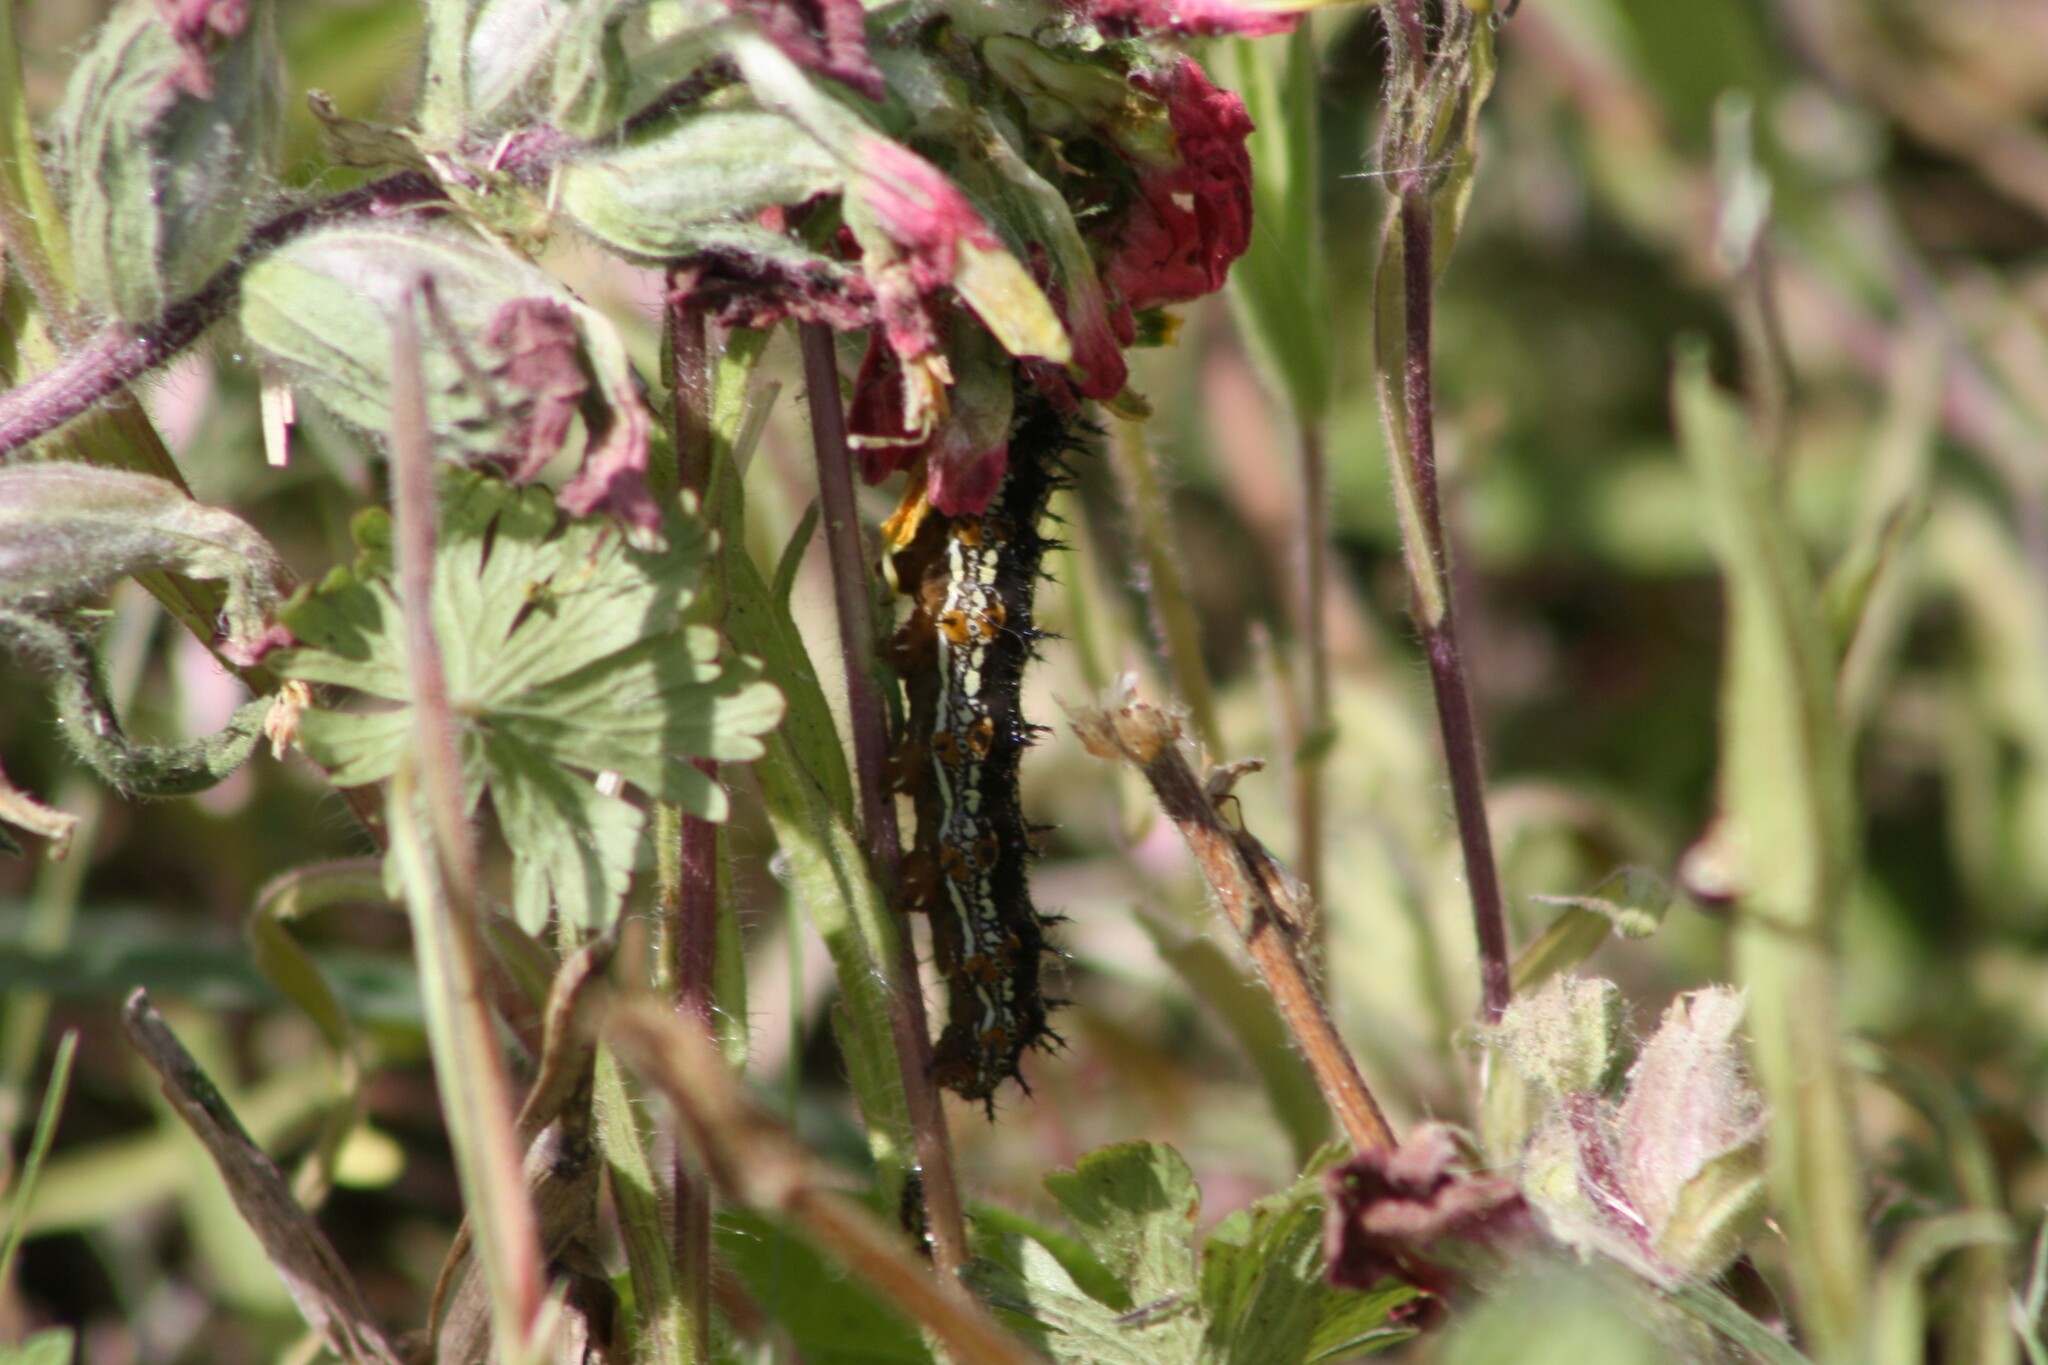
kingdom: Animalia
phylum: Arthropoda
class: Insecta
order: Lepidoptera
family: Nymphalidae
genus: Junonia
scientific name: Junonia coenia
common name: Common buckeye
